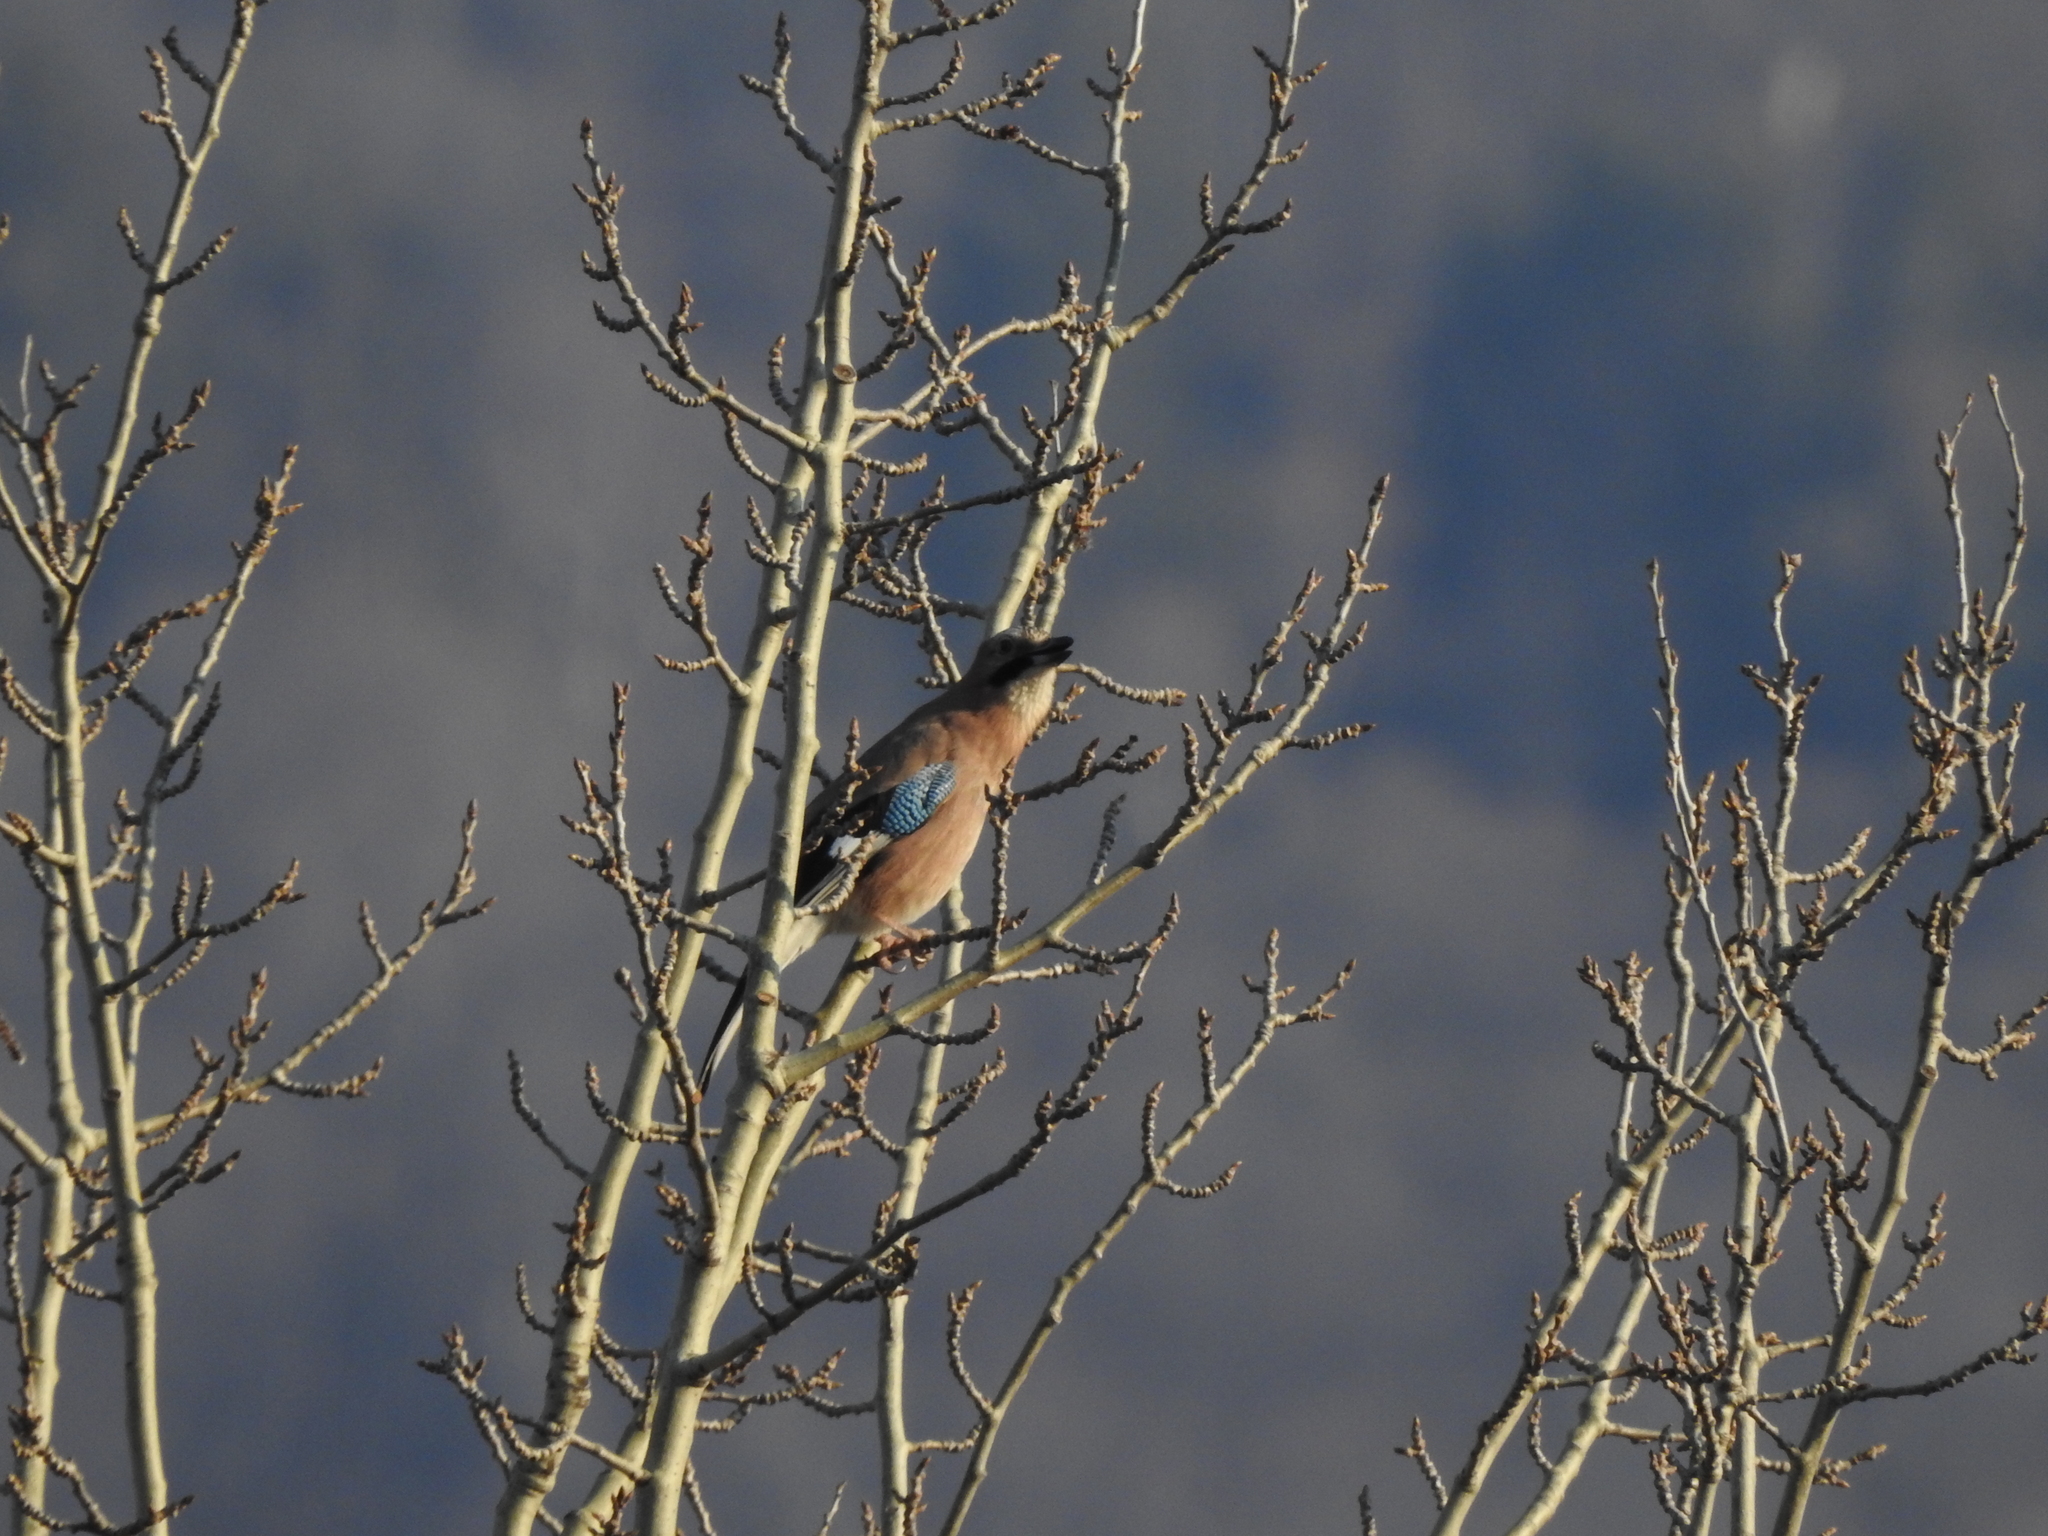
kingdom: Animalia
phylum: Chordata
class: Aves
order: Passeriformes
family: Corvidae
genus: Garrulus
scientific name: Garrulus glandarius
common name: Eurasian jay
